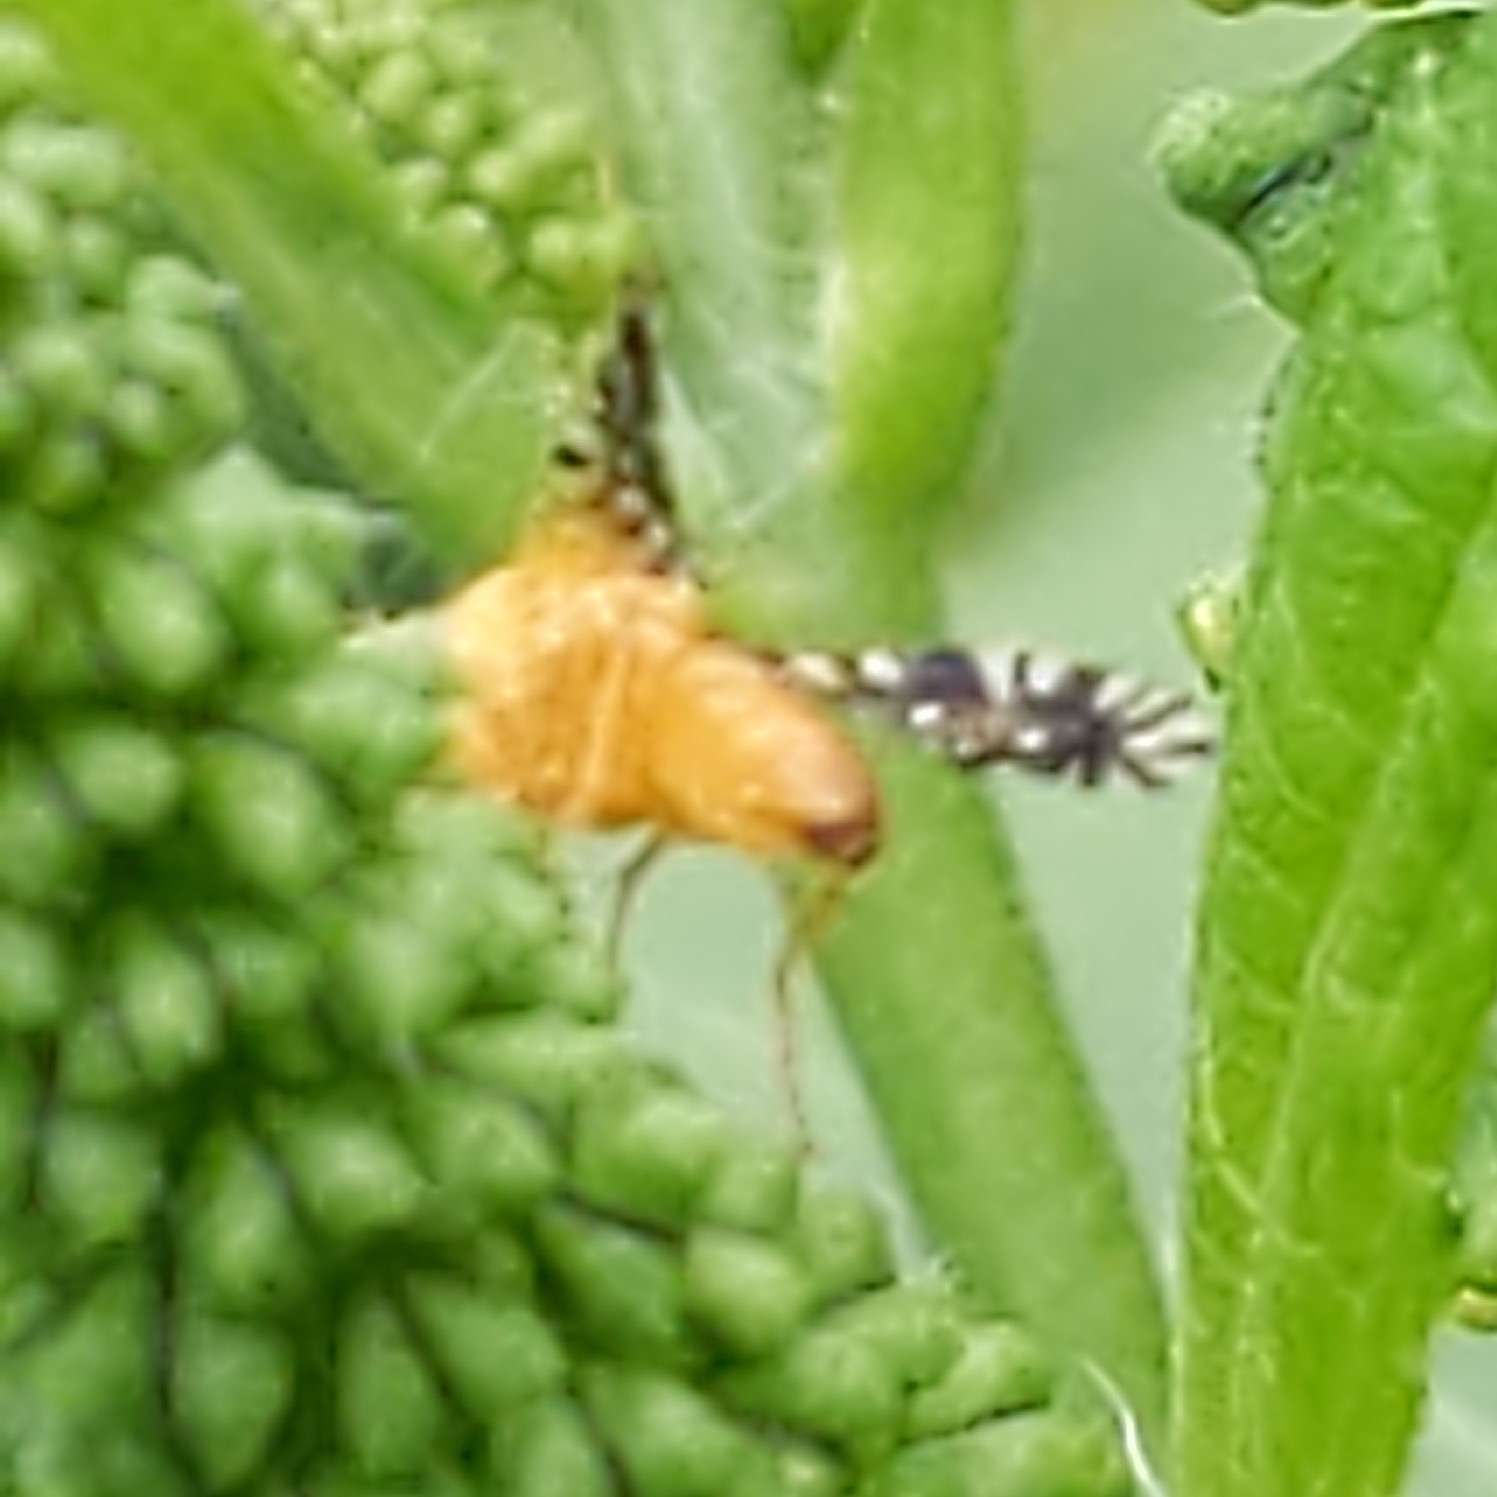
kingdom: Animalia
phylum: Arthropoda
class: Insecta
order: Diptera
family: Tephritidae
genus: Euaresta
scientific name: Euaresta festiva
